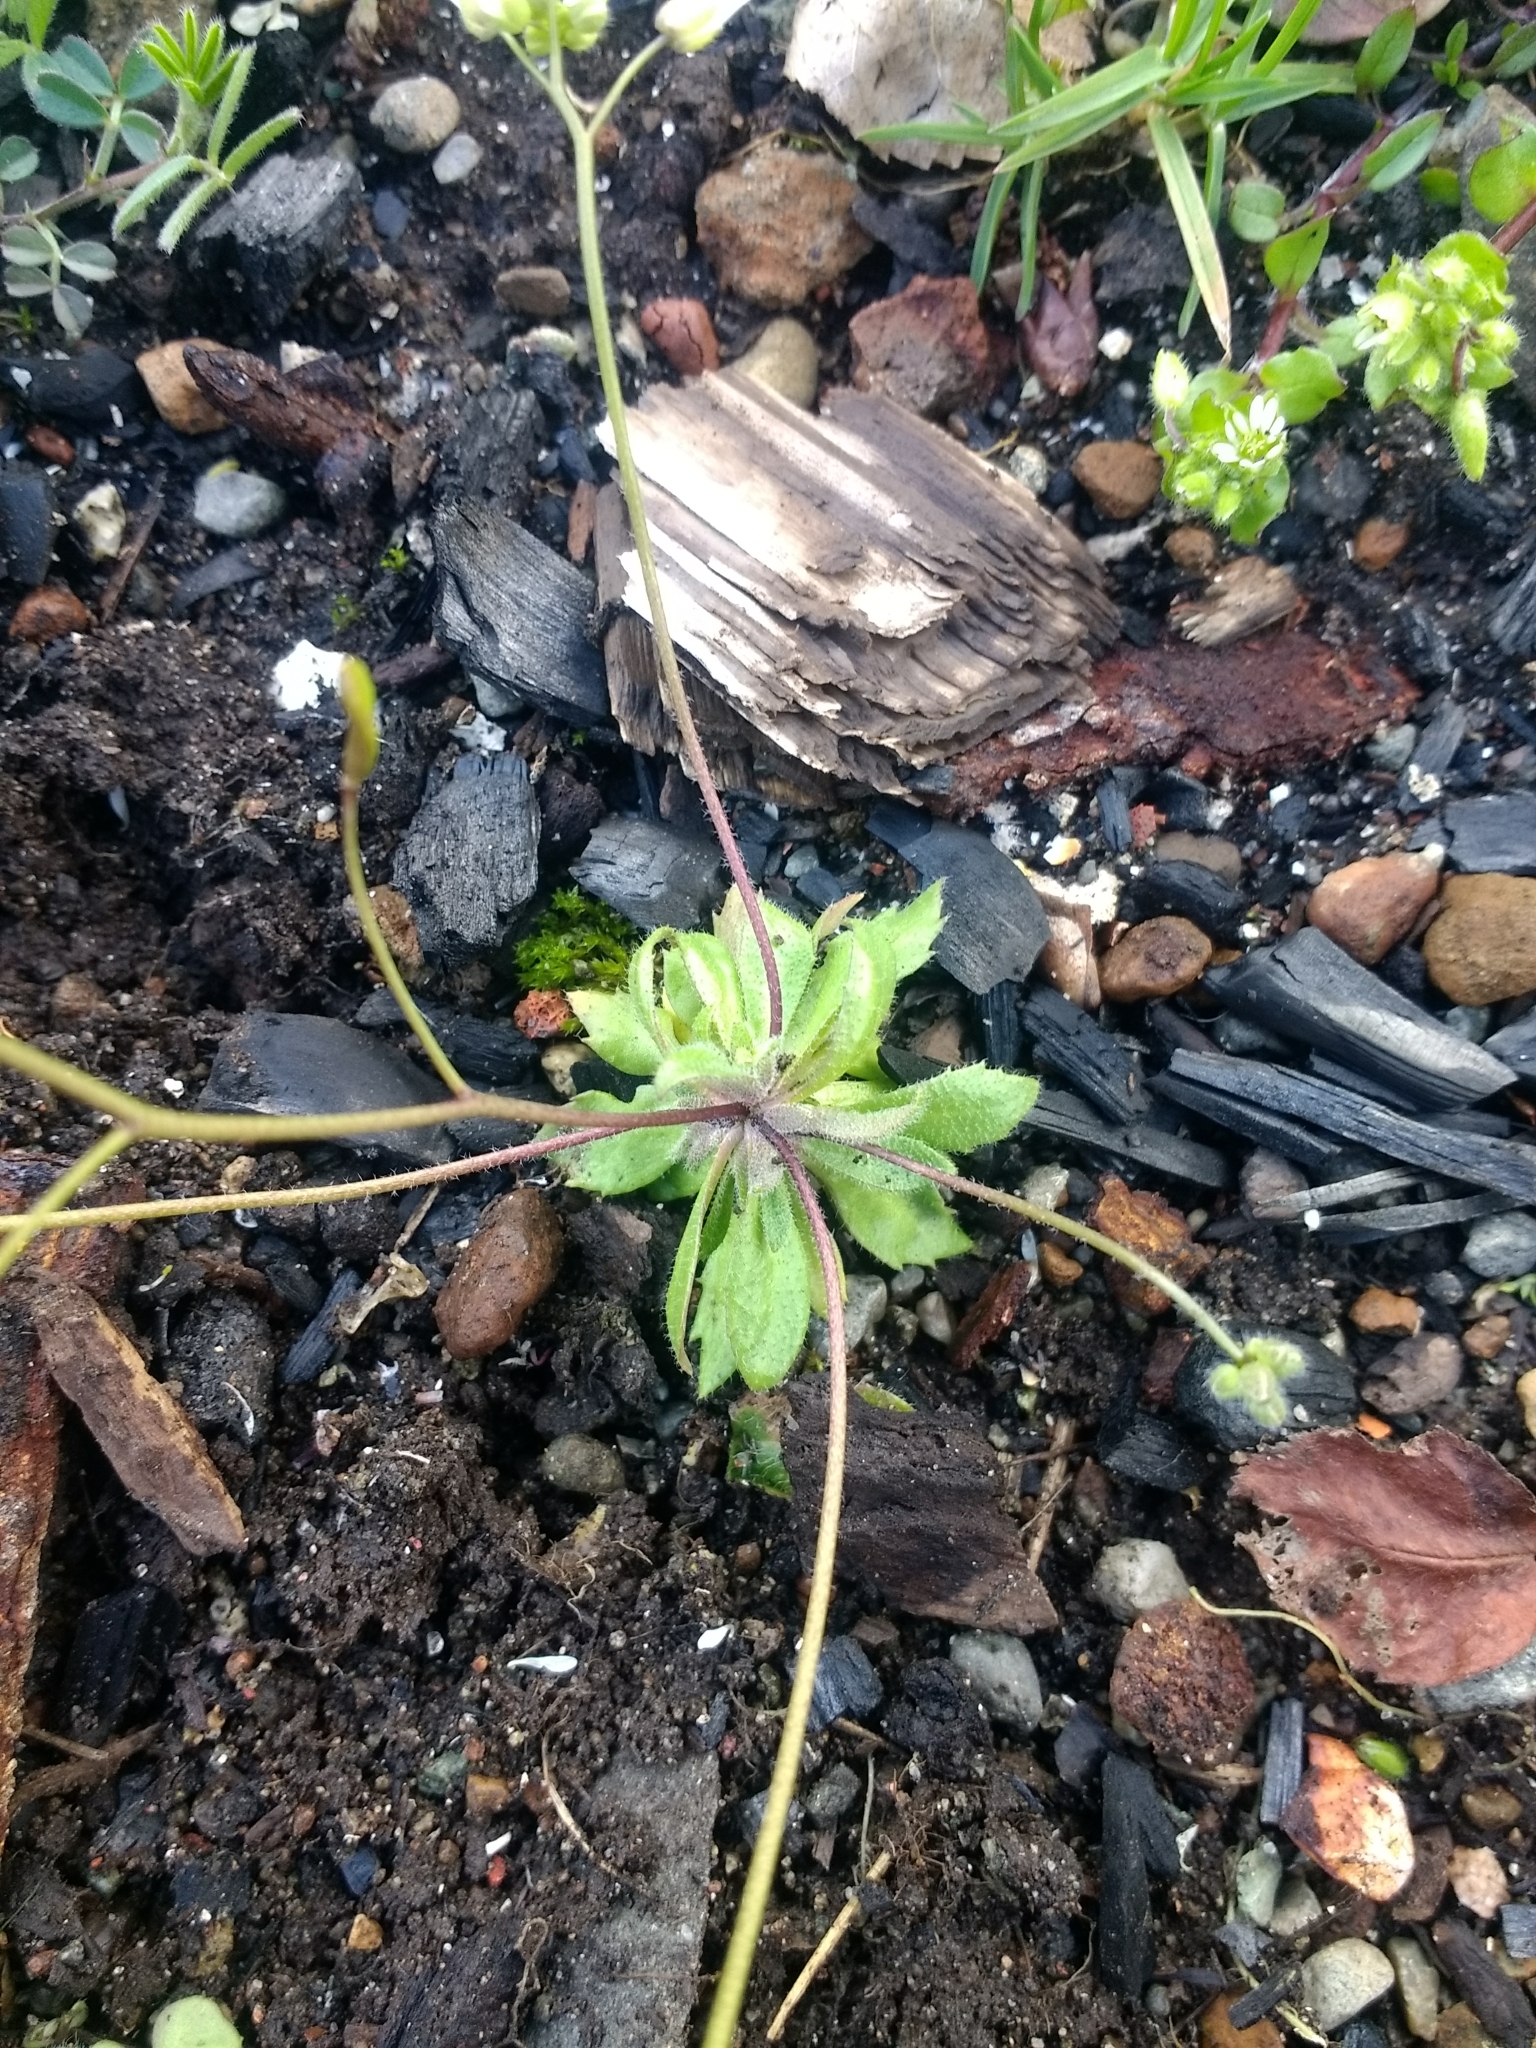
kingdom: Plantae
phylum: Tracheophyta
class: Magnoliopsida
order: Brassicales
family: Brassicaceae
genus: Draba
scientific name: Draba verna
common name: Spring draba
